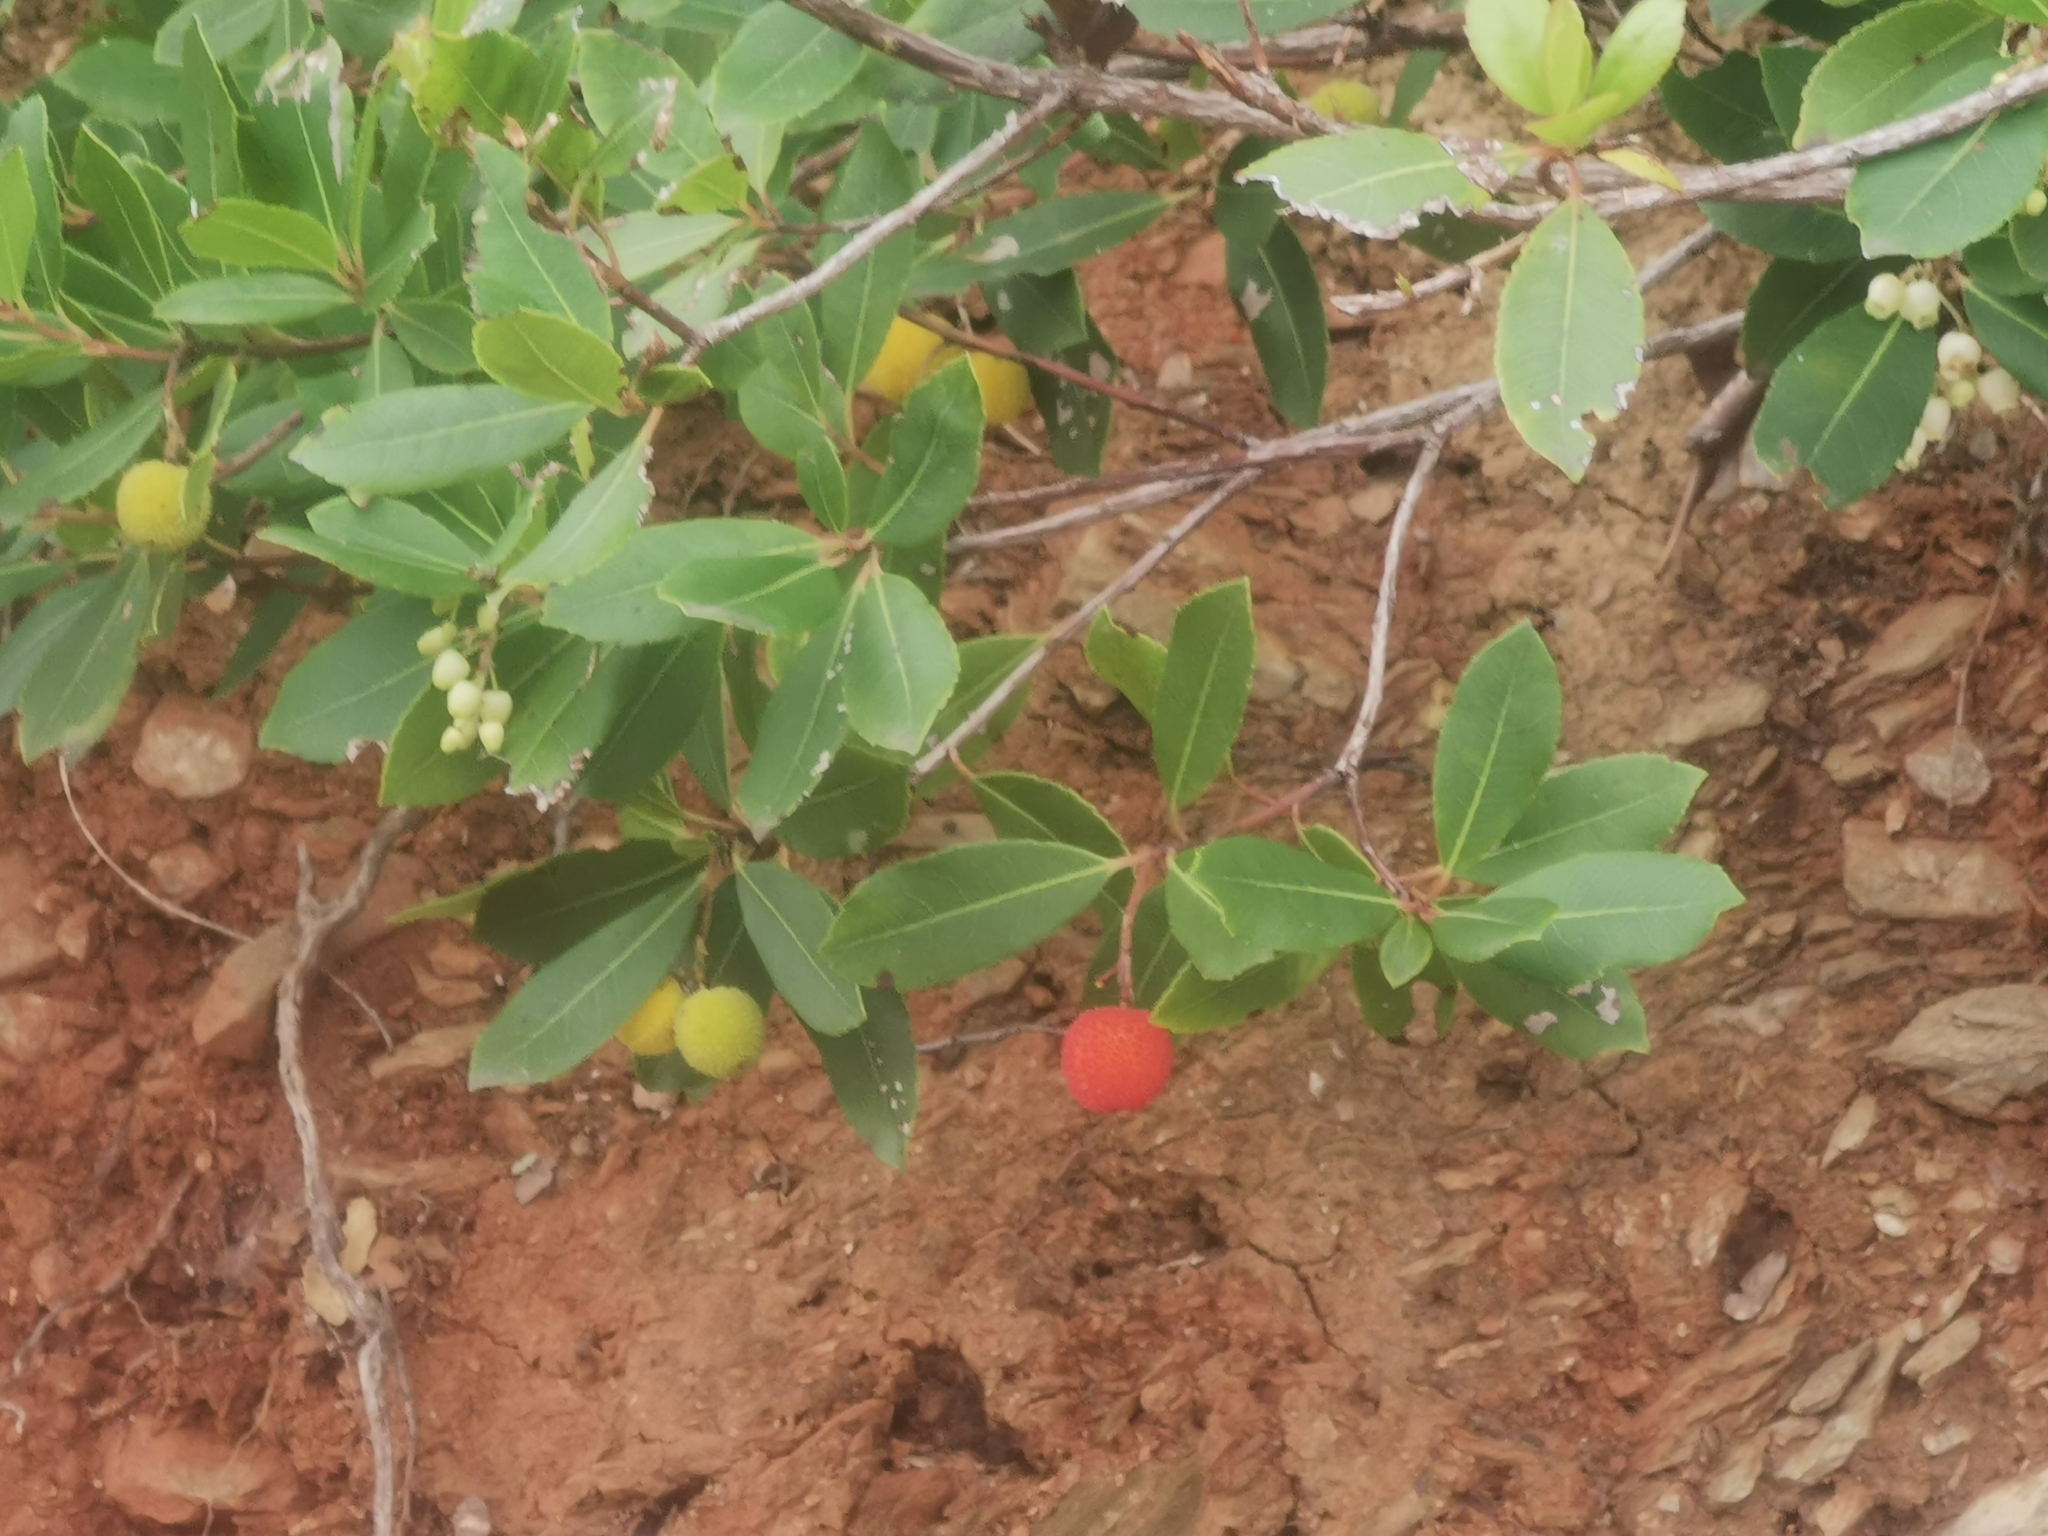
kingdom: Plantae
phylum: Tracheophyta
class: Magnoliopsida
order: Ericales
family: Ericaceae
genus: Arbutus
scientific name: Arbutus unedo
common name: Strawberry-tree
